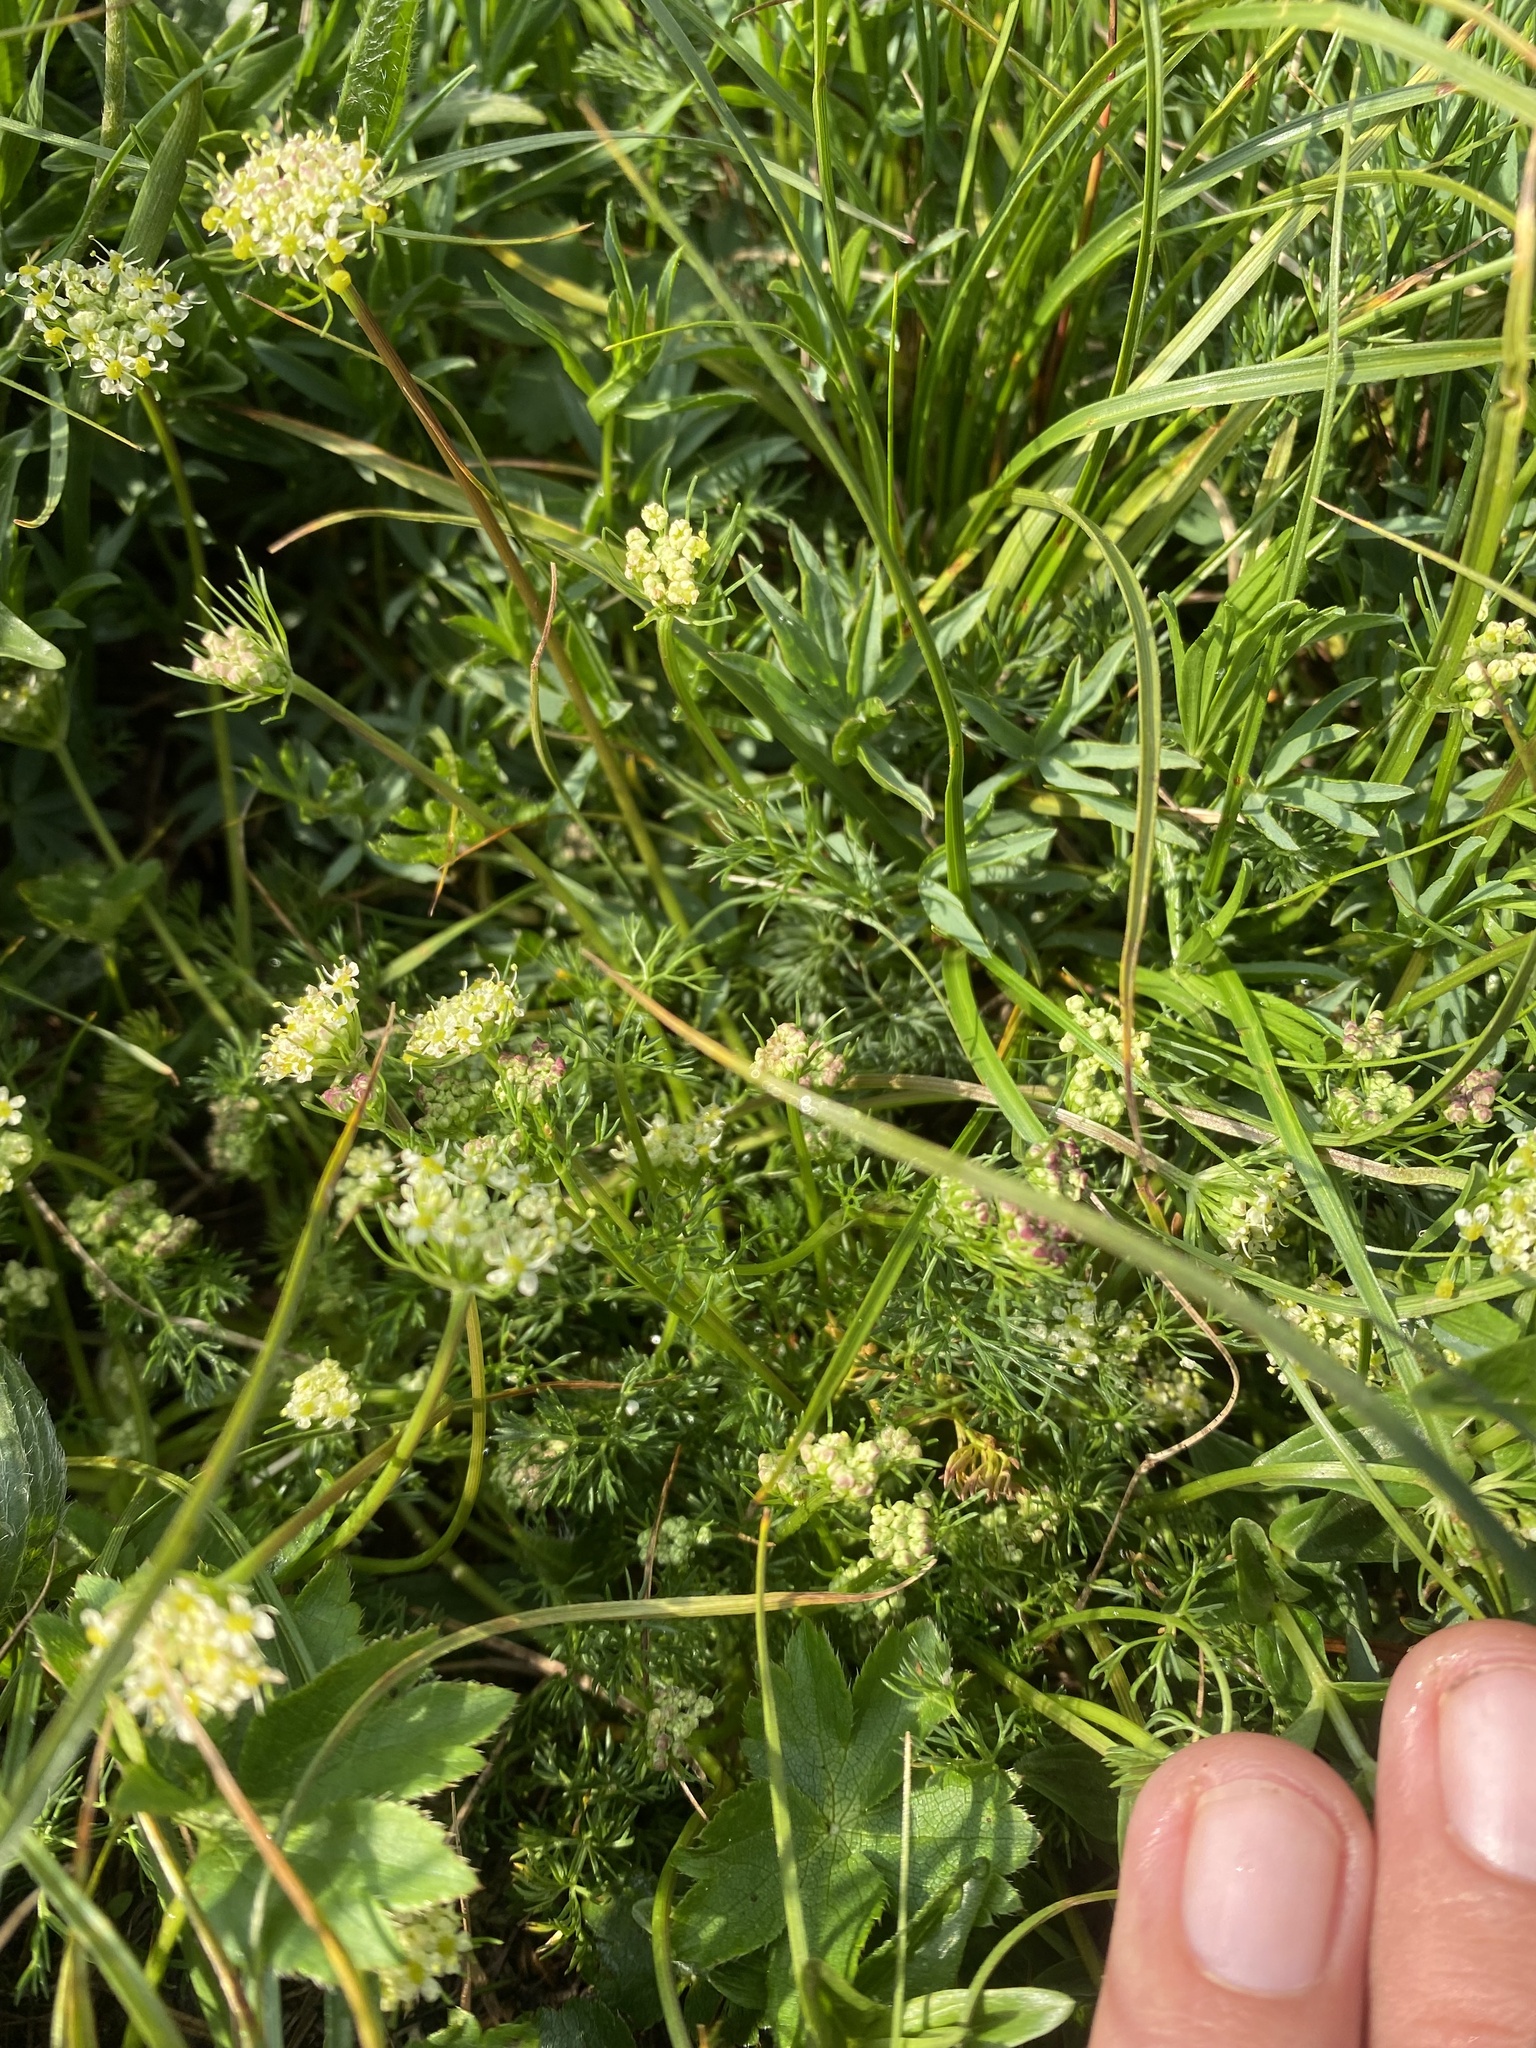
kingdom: Plantae
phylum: Tracheophyta
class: Magnoliopsida
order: Apiales
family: Apiaceae
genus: Chamaesciadium
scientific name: Chamaesciadium acaule
